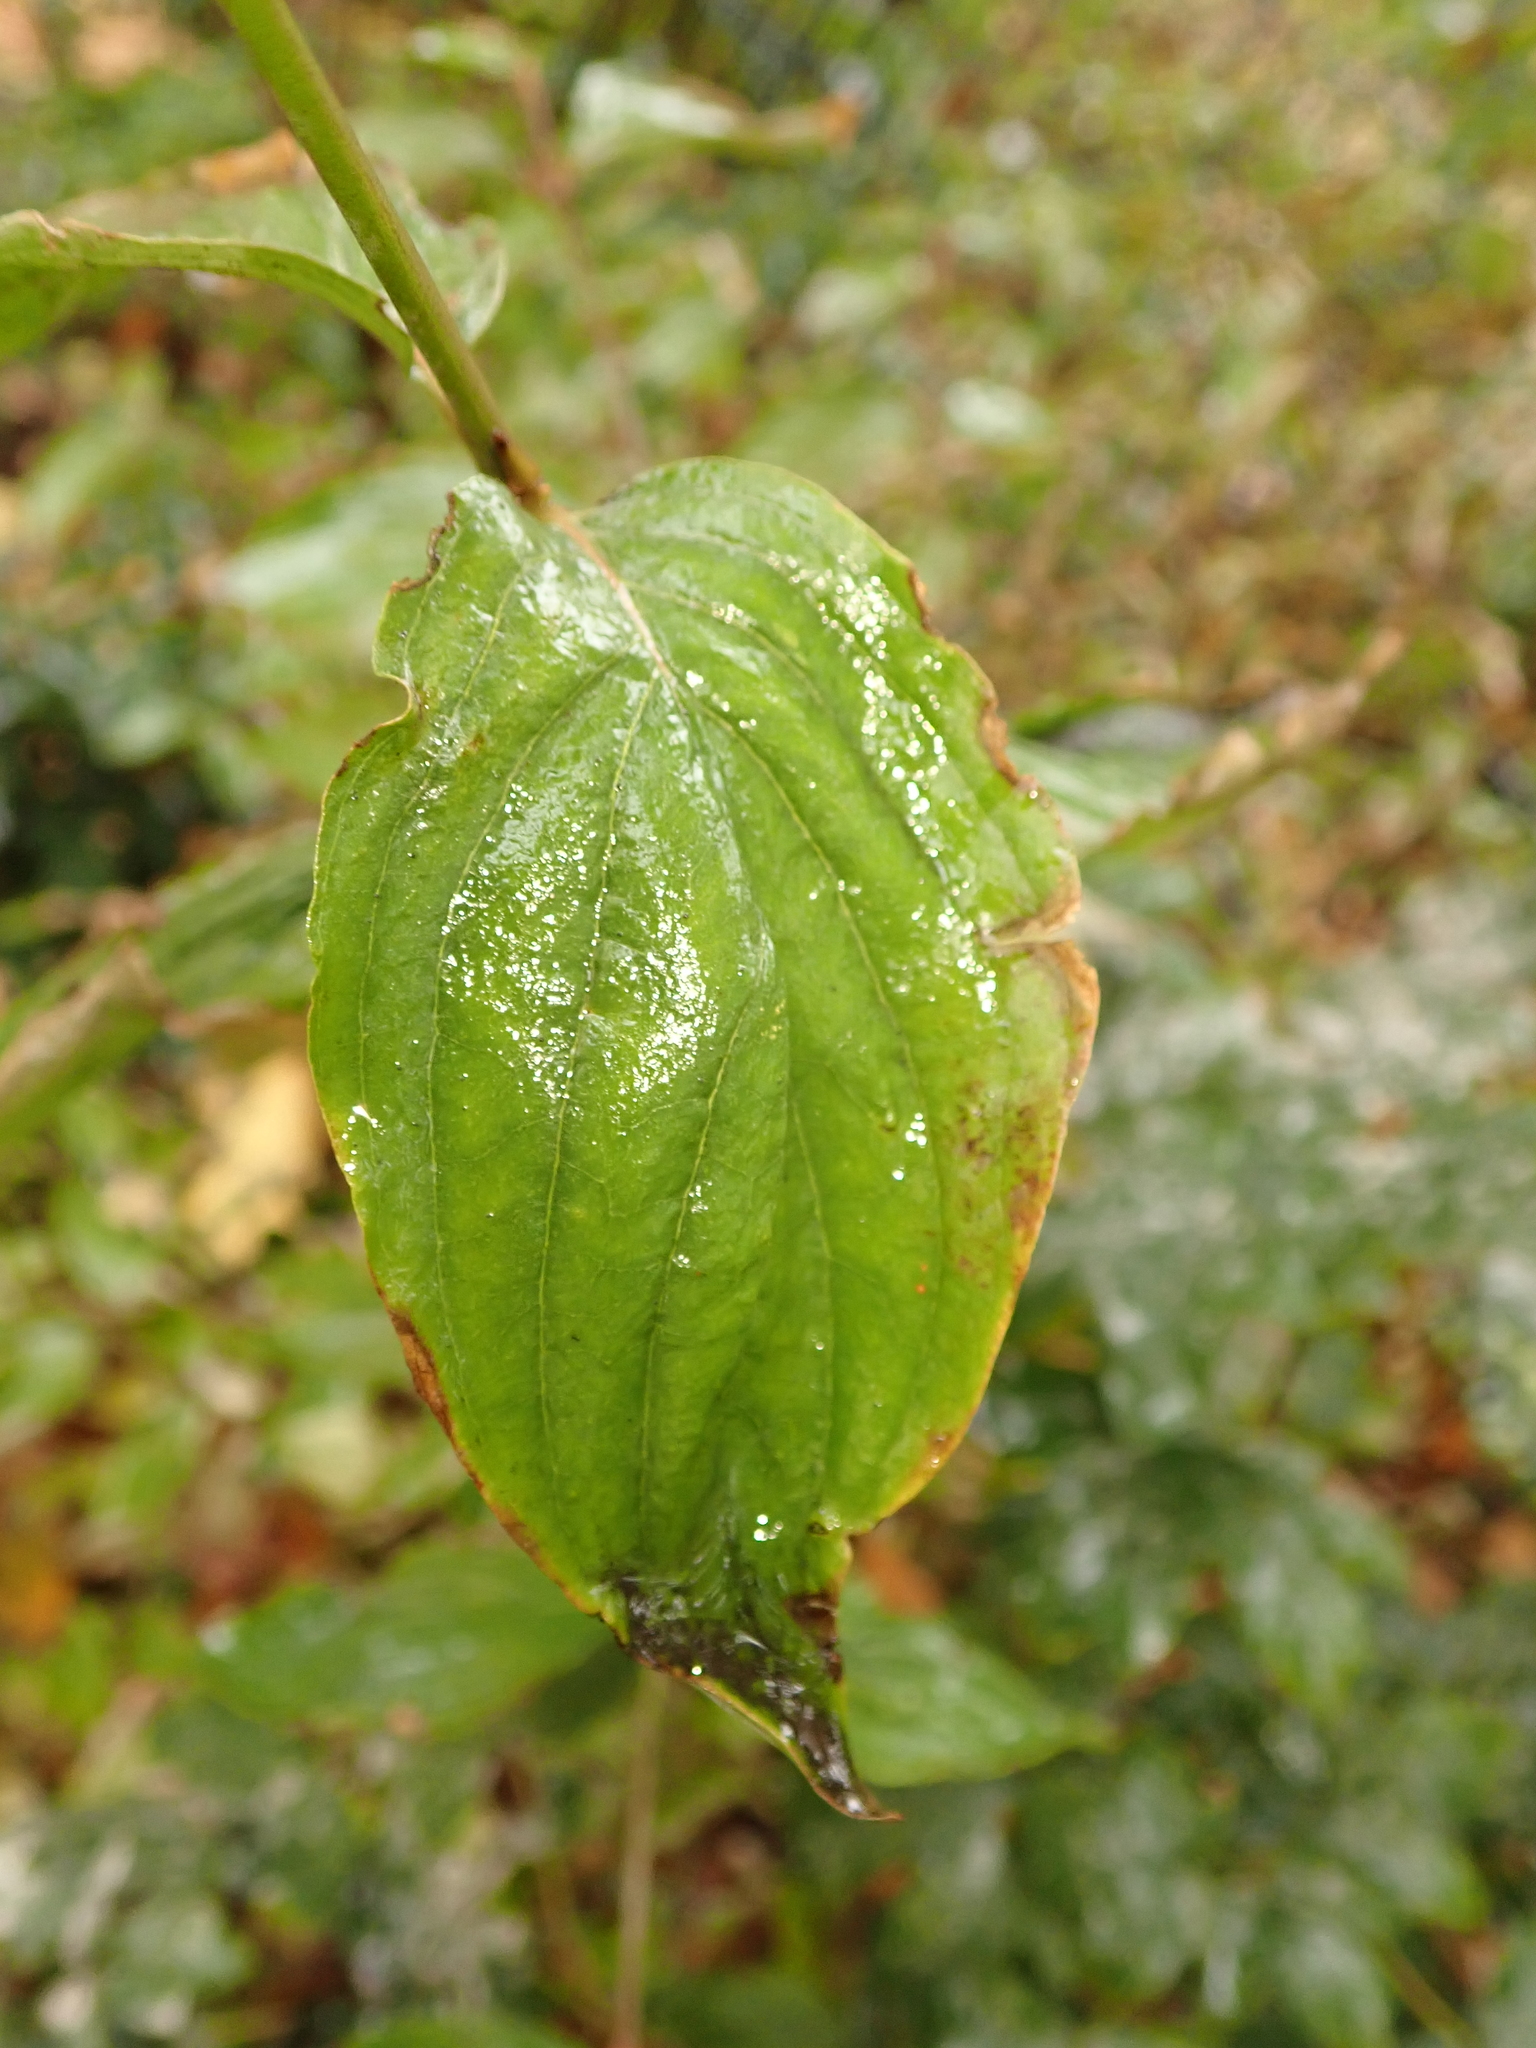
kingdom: Plantae
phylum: Tracheophyta
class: Magnoliopsida
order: Cornales
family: Cornaceae
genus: Cornus
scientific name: Cornus sanguinea
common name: Dogwood
